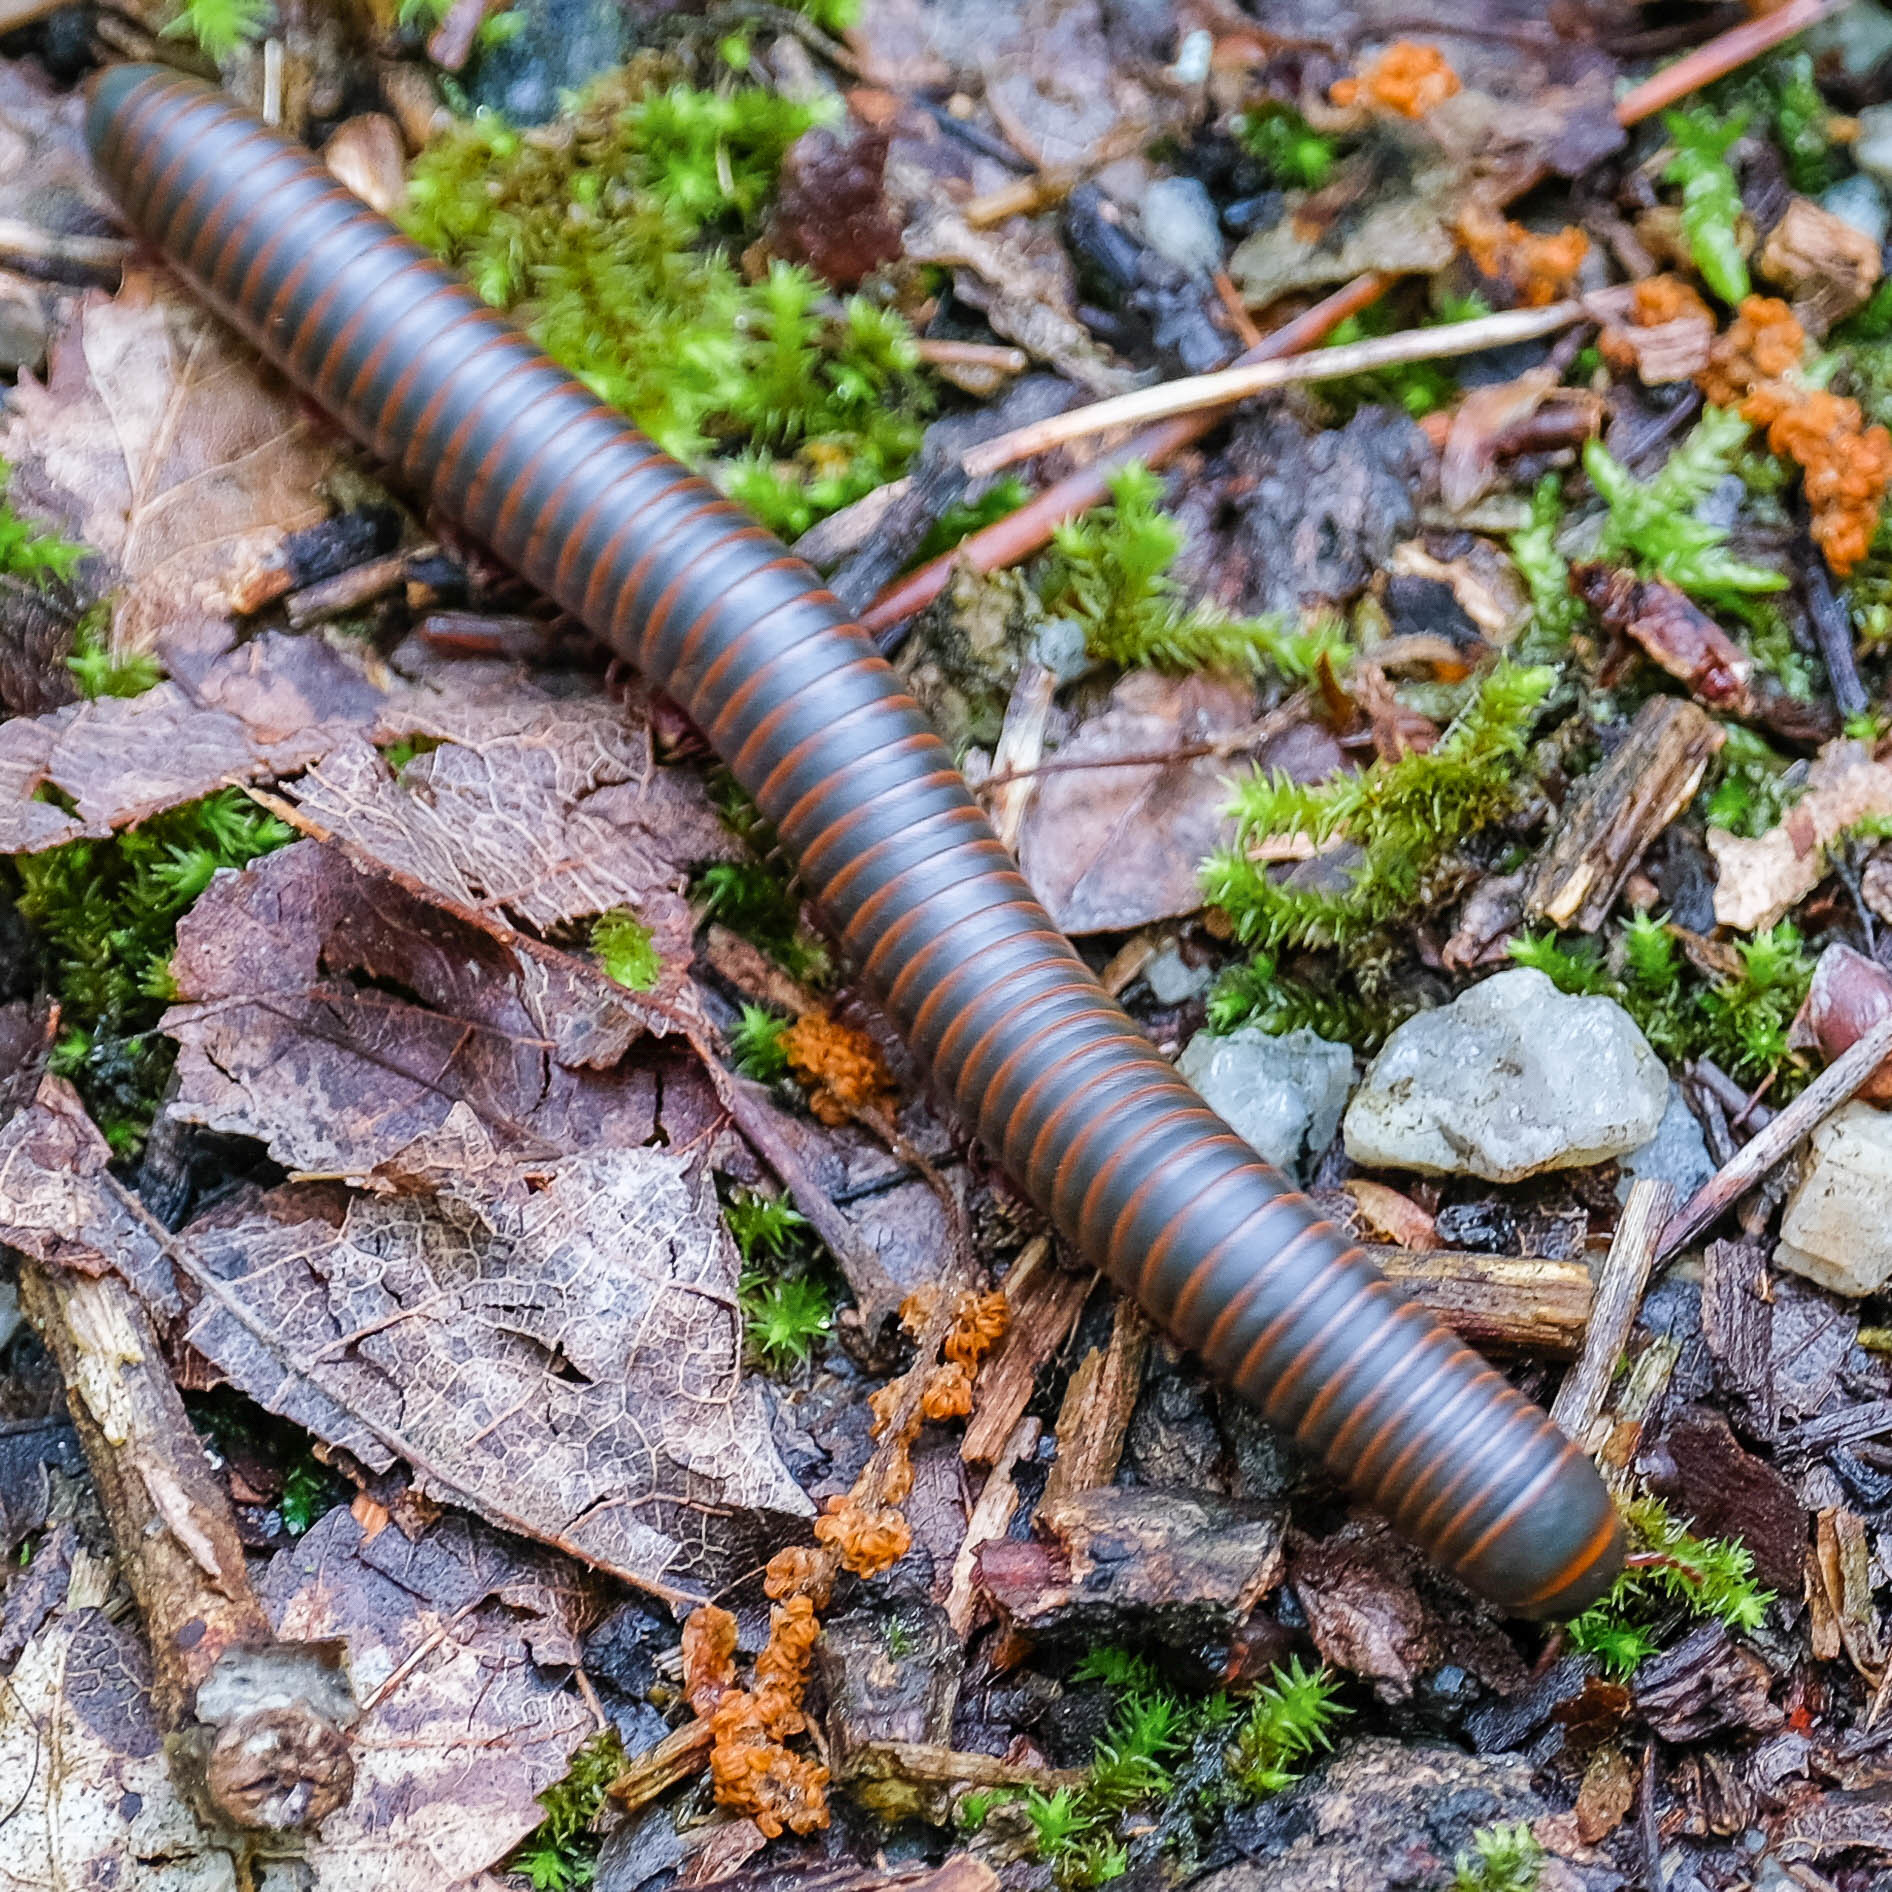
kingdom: Animalia
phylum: Arthropoda
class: Diplopoda
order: Spirobolida
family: Spirobolidae
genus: Narceus
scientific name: Narceus
